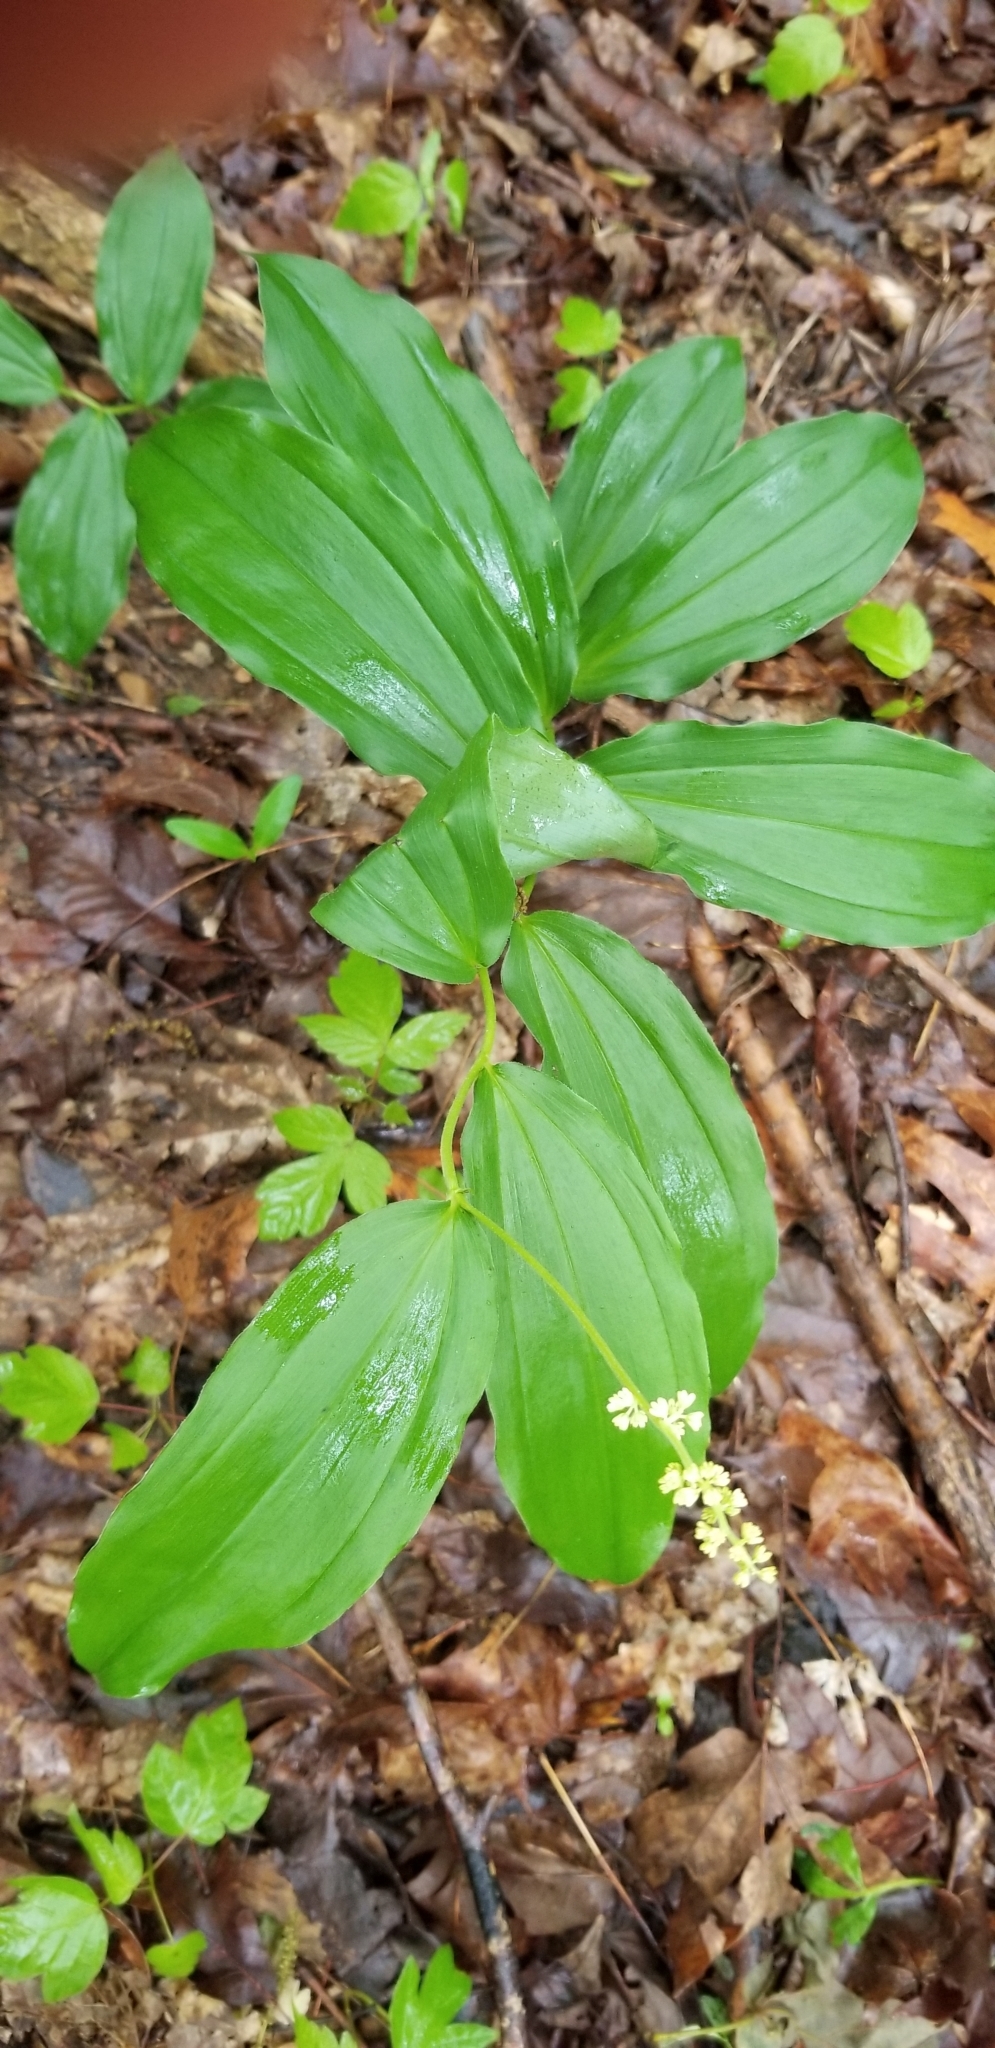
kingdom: Plantae
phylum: Tracheophyta
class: Liliopsida
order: Asparagales
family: Asparagaceae
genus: Maianthemum
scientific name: Maianthemum racemosum
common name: False spikenard
